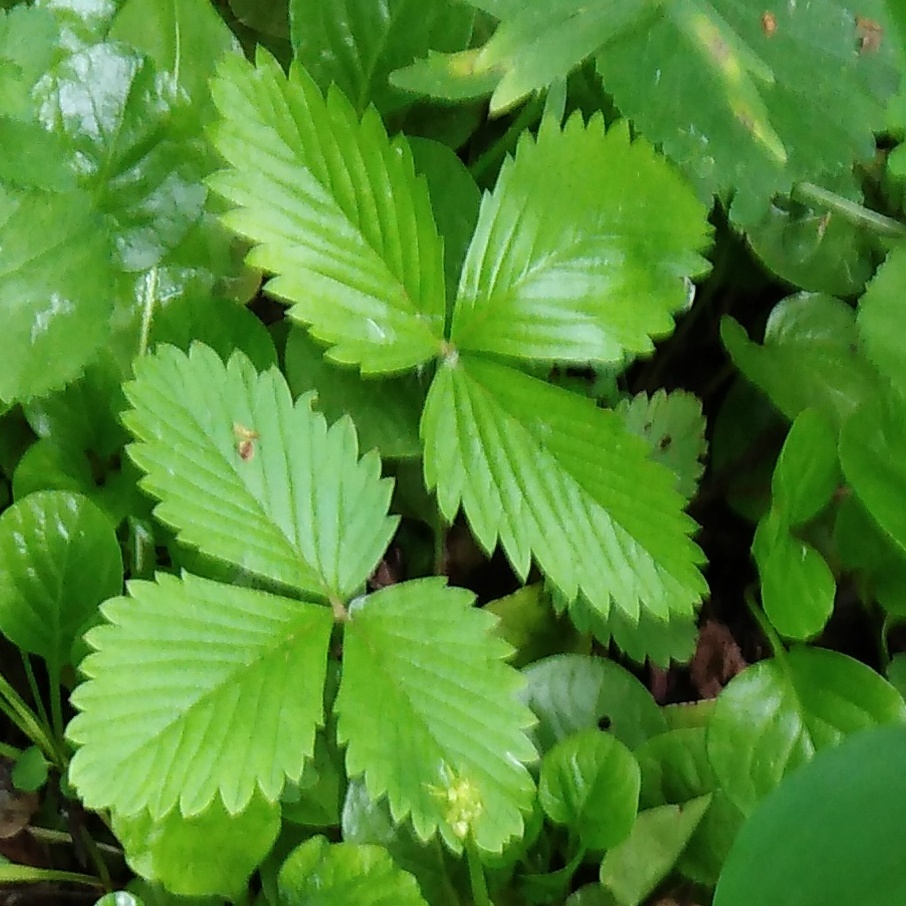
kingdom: Plantae
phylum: Tracheophyta
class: Magnoliopsida
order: Rosales
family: Rosaceae
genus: Fragaria
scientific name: Fragaria vesca
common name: Wild strawberry
